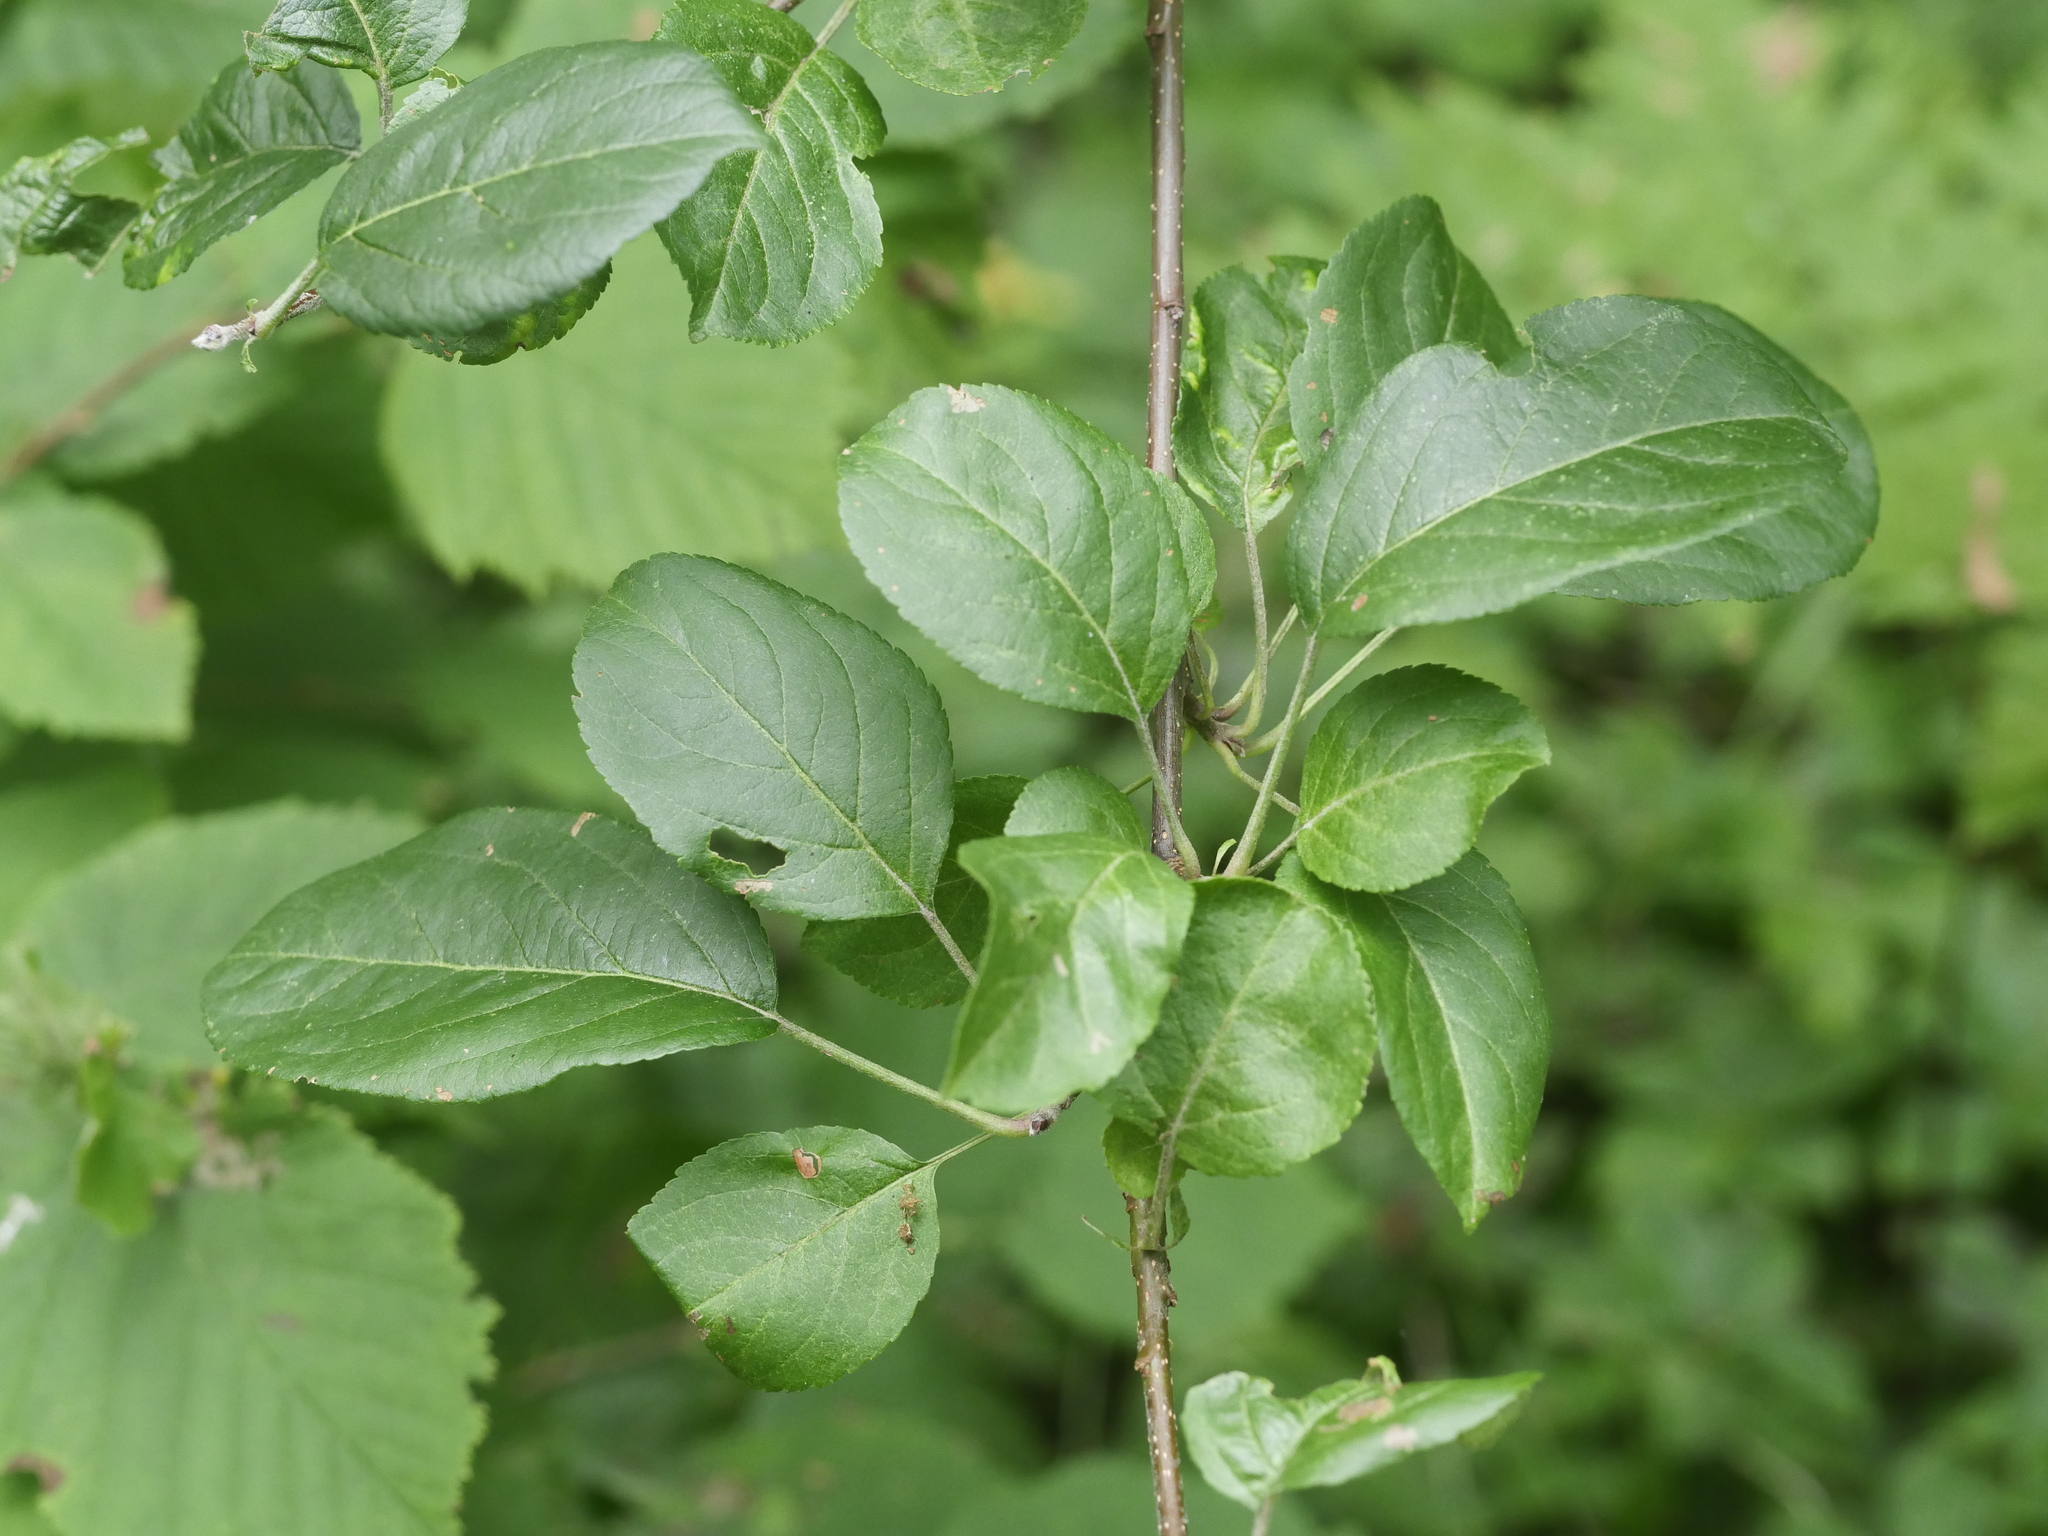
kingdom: Plantae
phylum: Tracheophyta
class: Magnoliopsida
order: Rosales
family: Rosaceae
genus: Malus
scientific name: Malus domestica
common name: Apple
